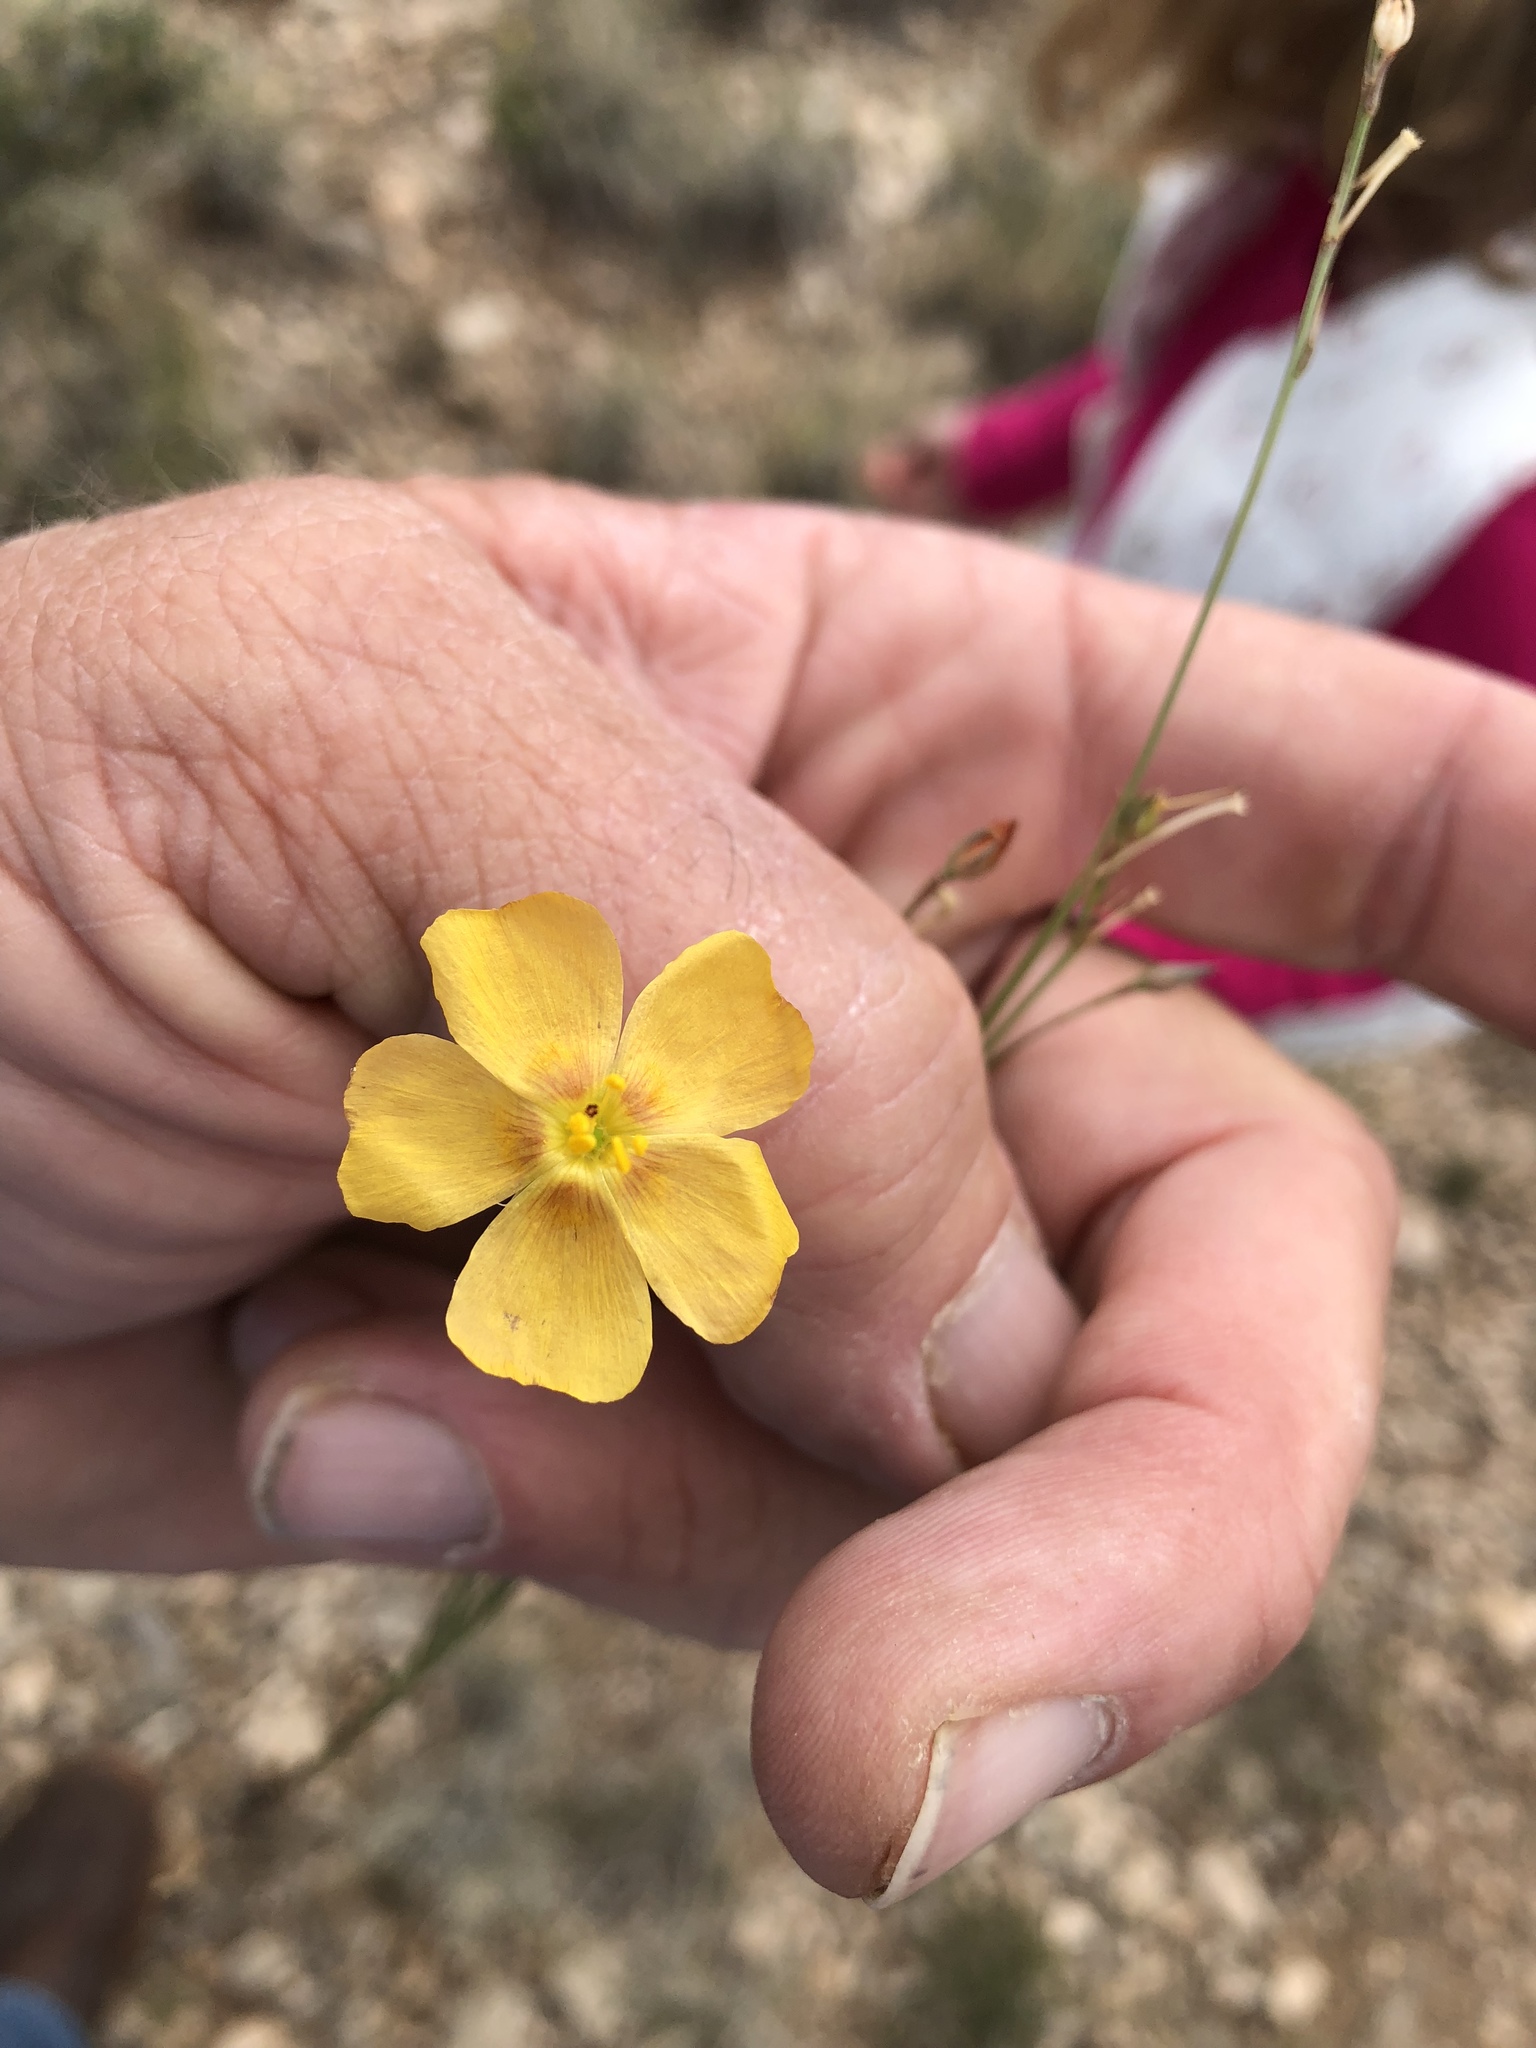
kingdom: Plantae
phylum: Tracheophyta
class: Magnoliopsida
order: Malpighiales
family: Linaceae
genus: Linum
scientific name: Linum berlandieri
